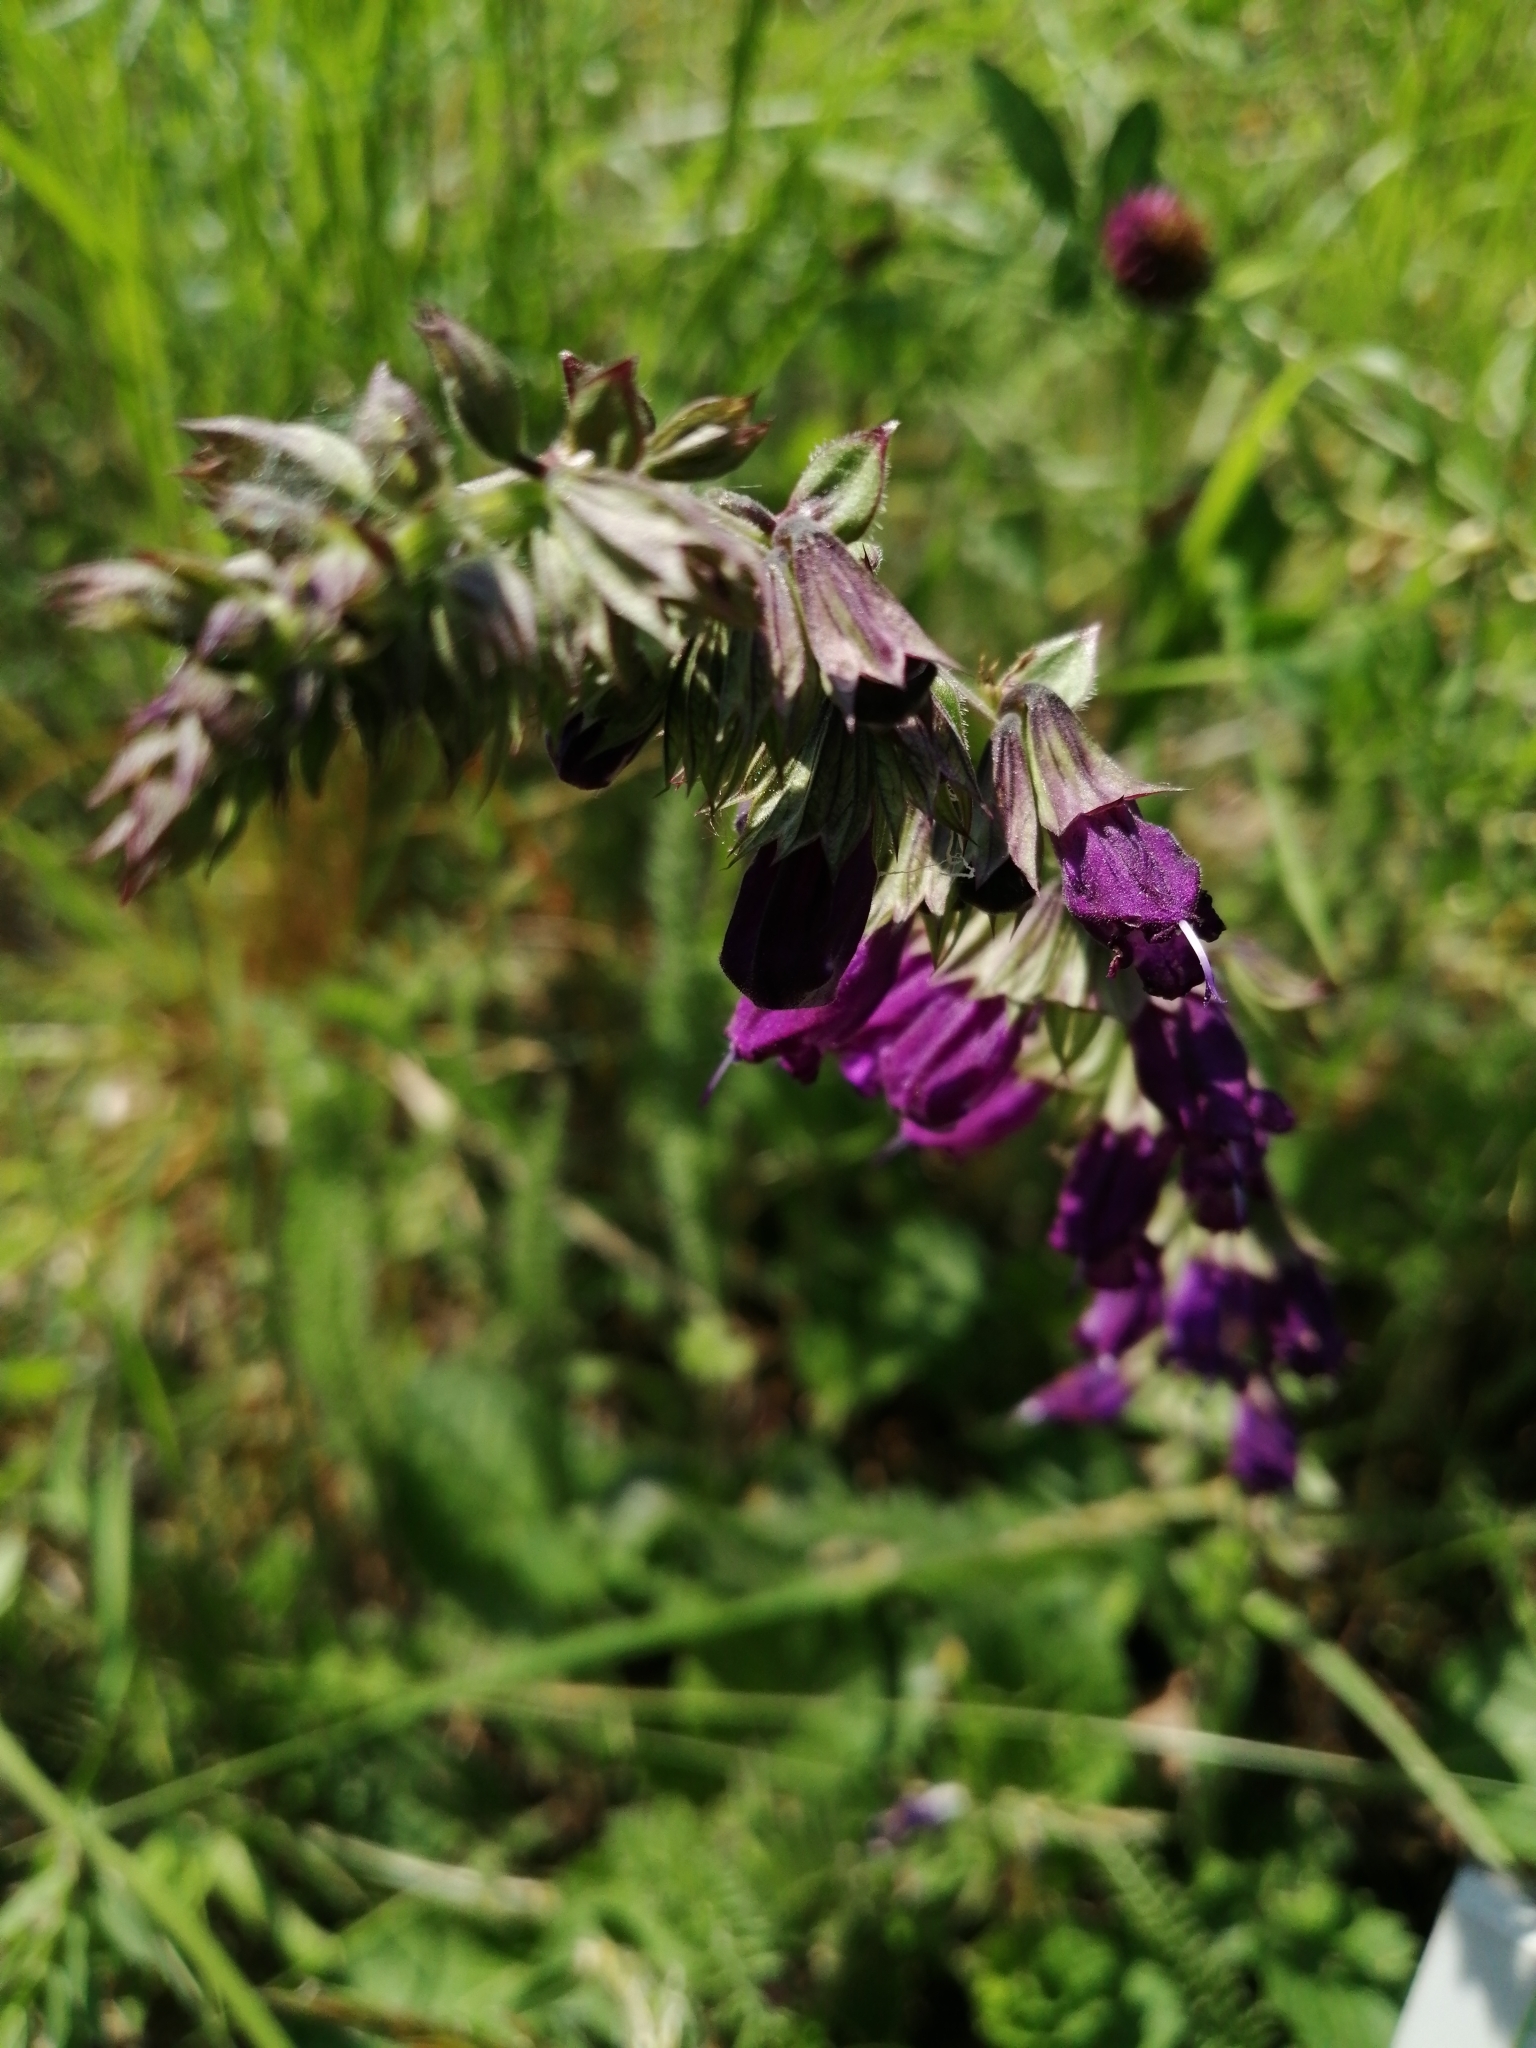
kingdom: Plantae
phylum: Tracheophyta
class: Magnoliopsida
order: Lamiales
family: Lamiaceae
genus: Horminum
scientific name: Horminum pyrenaicum
